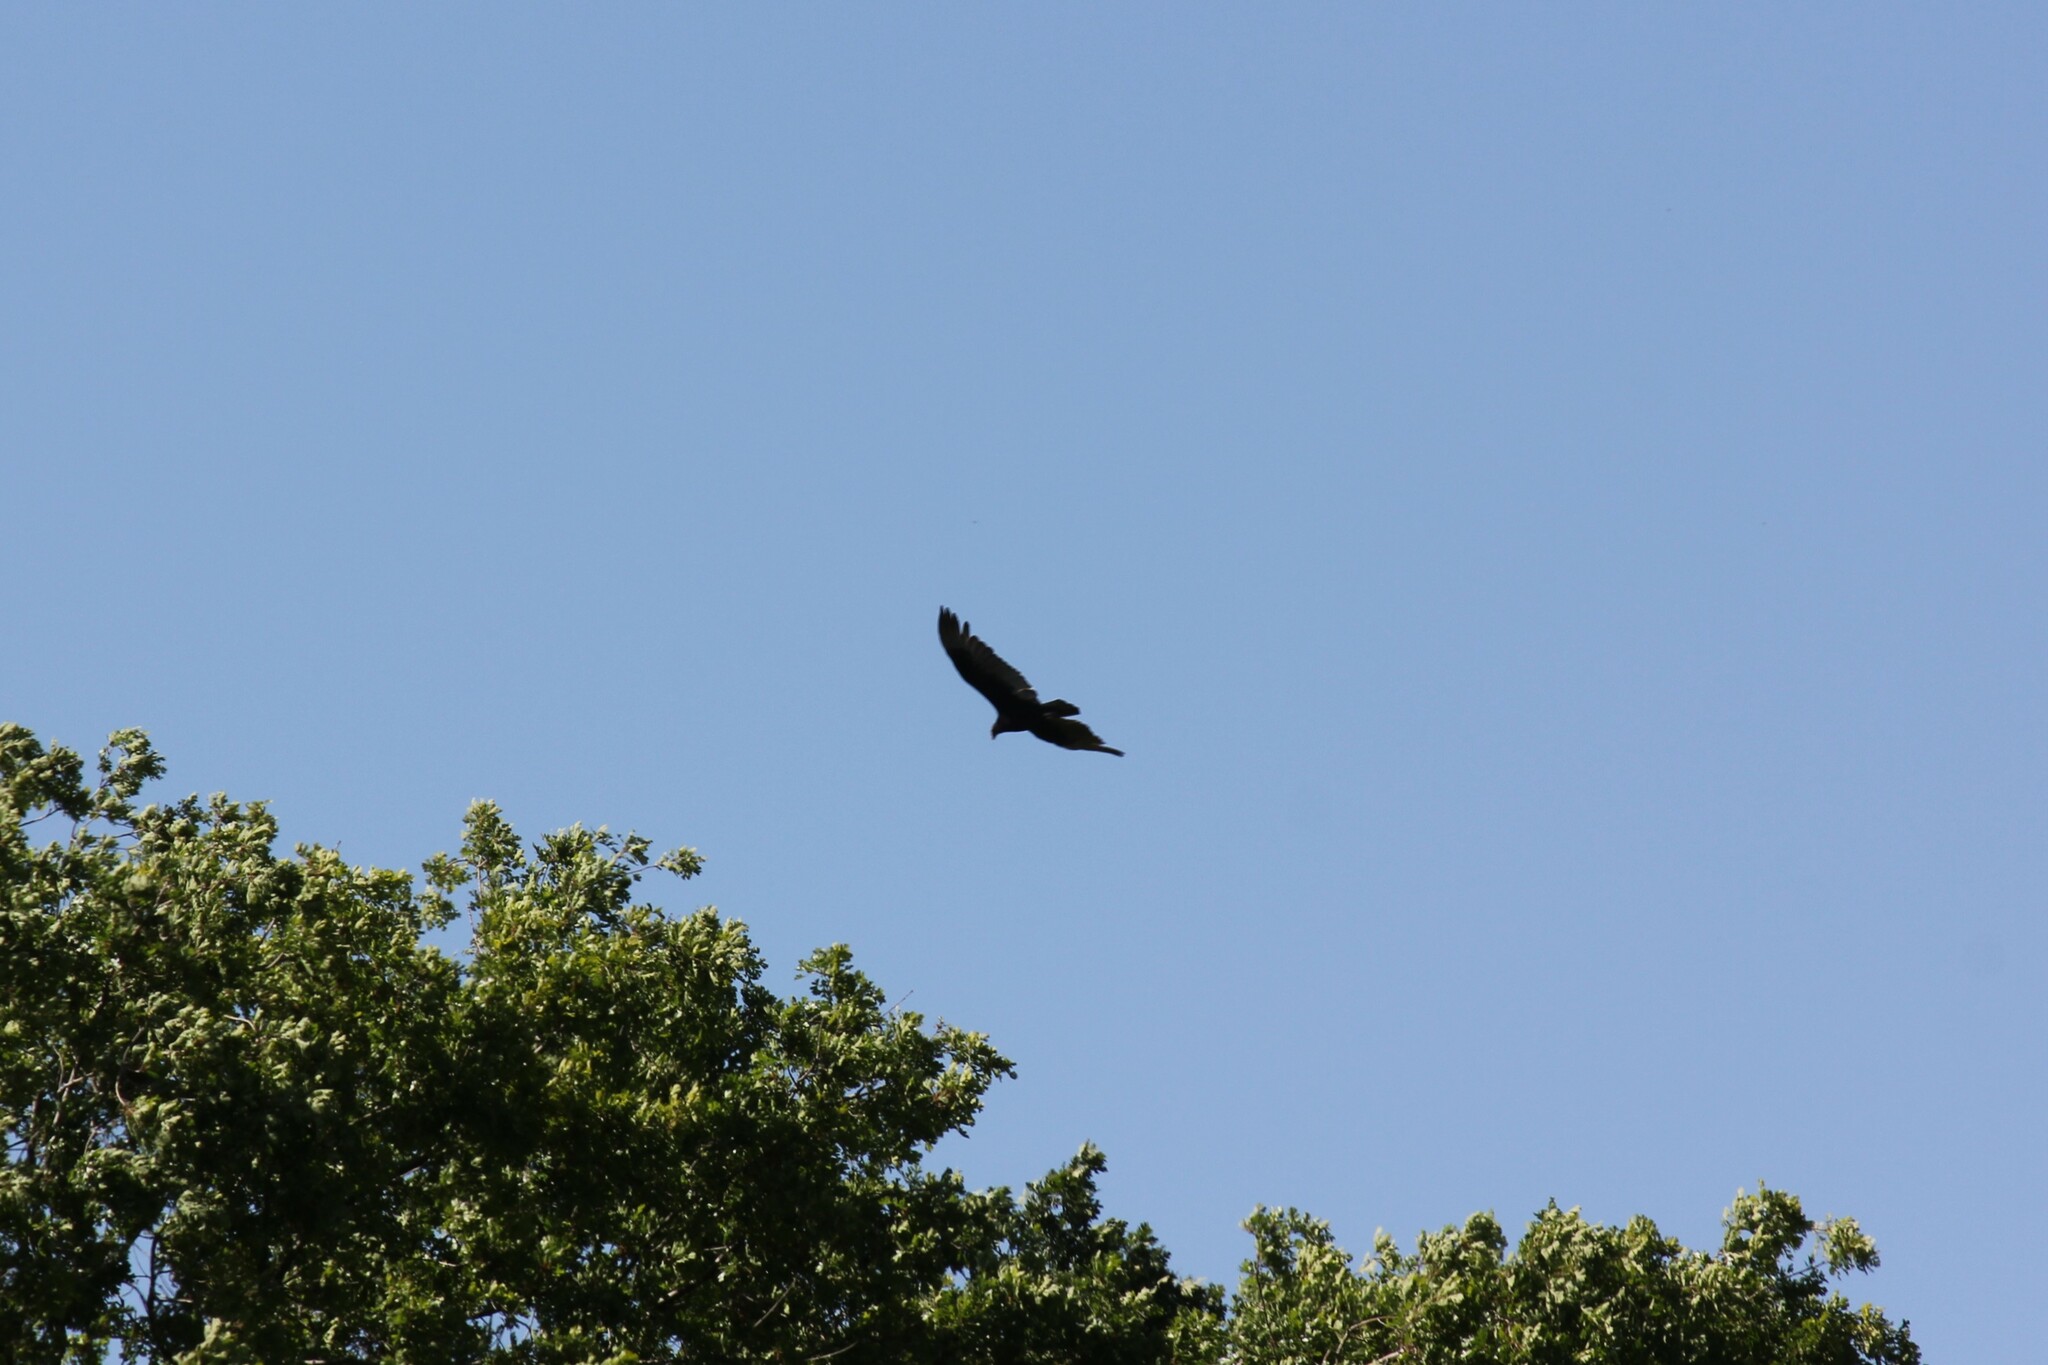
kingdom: Animalia
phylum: Chordata
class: Aves
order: Accipitriformes
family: Cathartidae
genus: Cathartes
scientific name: Cathartes aura
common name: Turkey vulture
